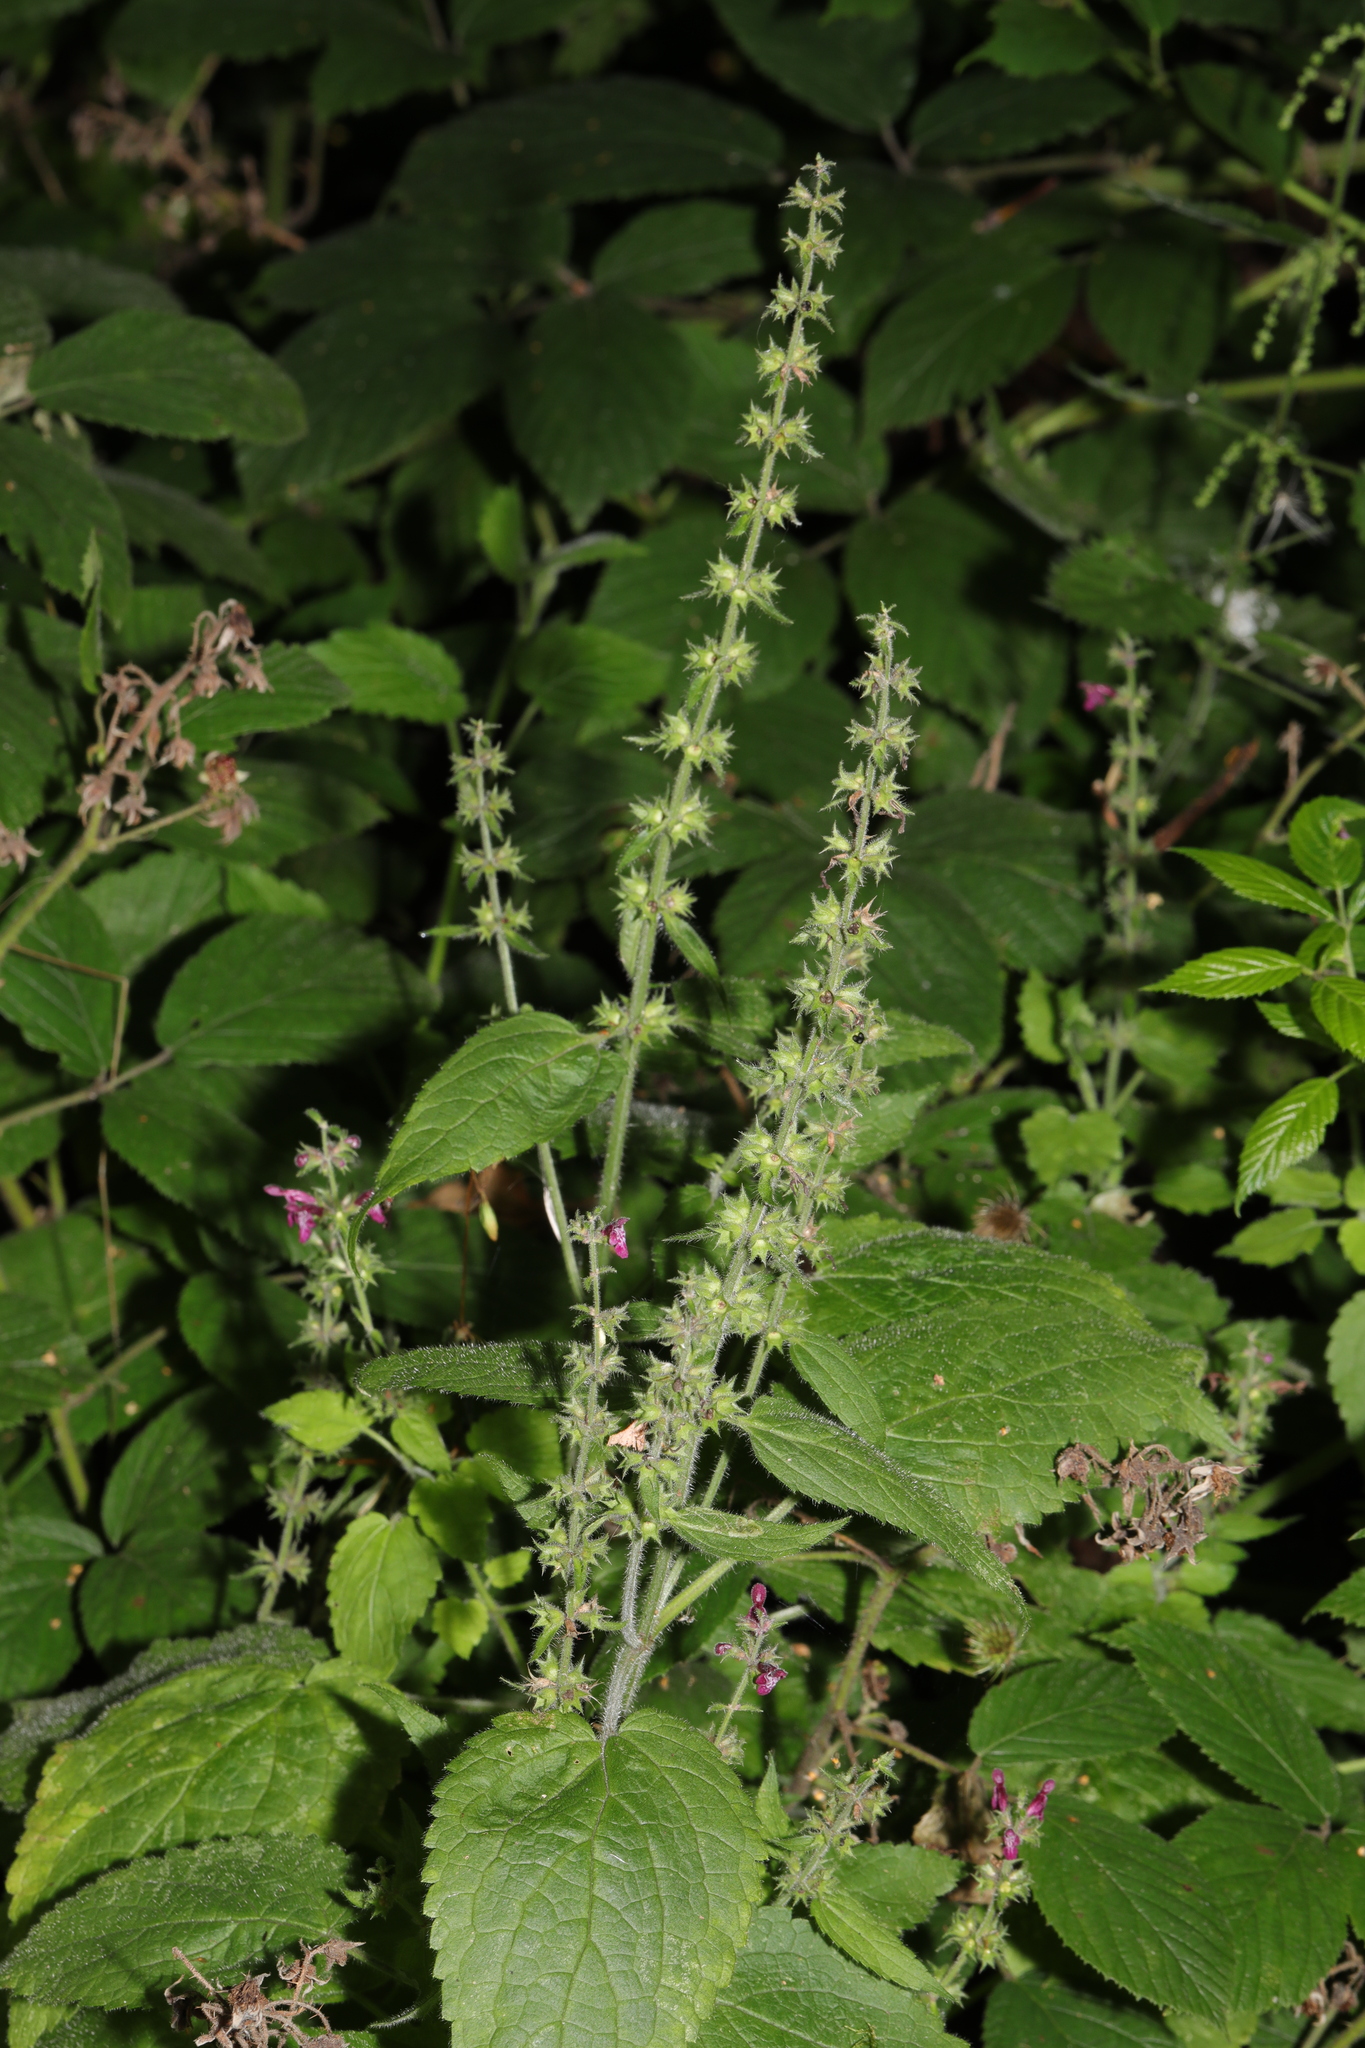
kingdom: Plantae
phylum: Tracheophyta
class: Magnoliopsida
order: Lamiales
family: Lamiaceae
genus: Stachys
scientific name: Stachys sylvatica
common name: Hedge woundwort
